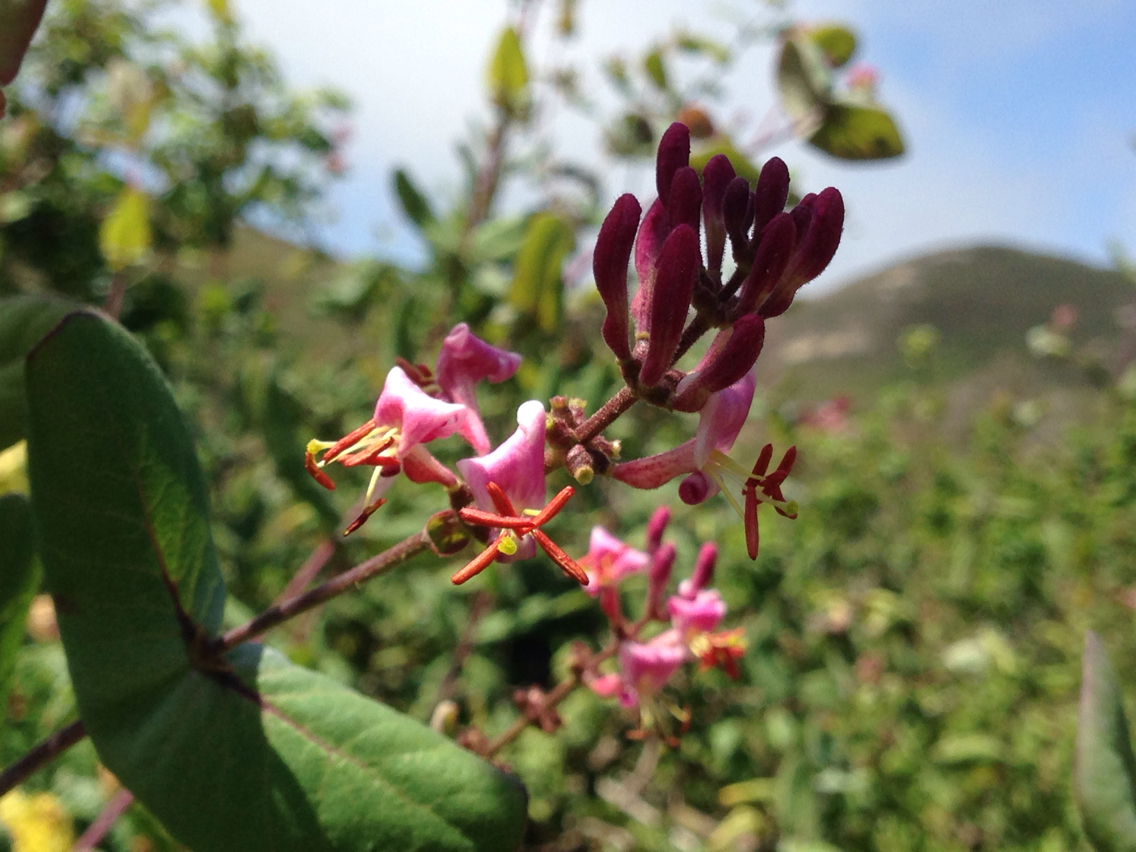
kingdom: Plantae
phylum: Tracheophyta
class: Magnoliopsida
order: Dipsacales
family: Caprifoliaceae
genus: Lonicera
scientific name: Lonicera hispidula
